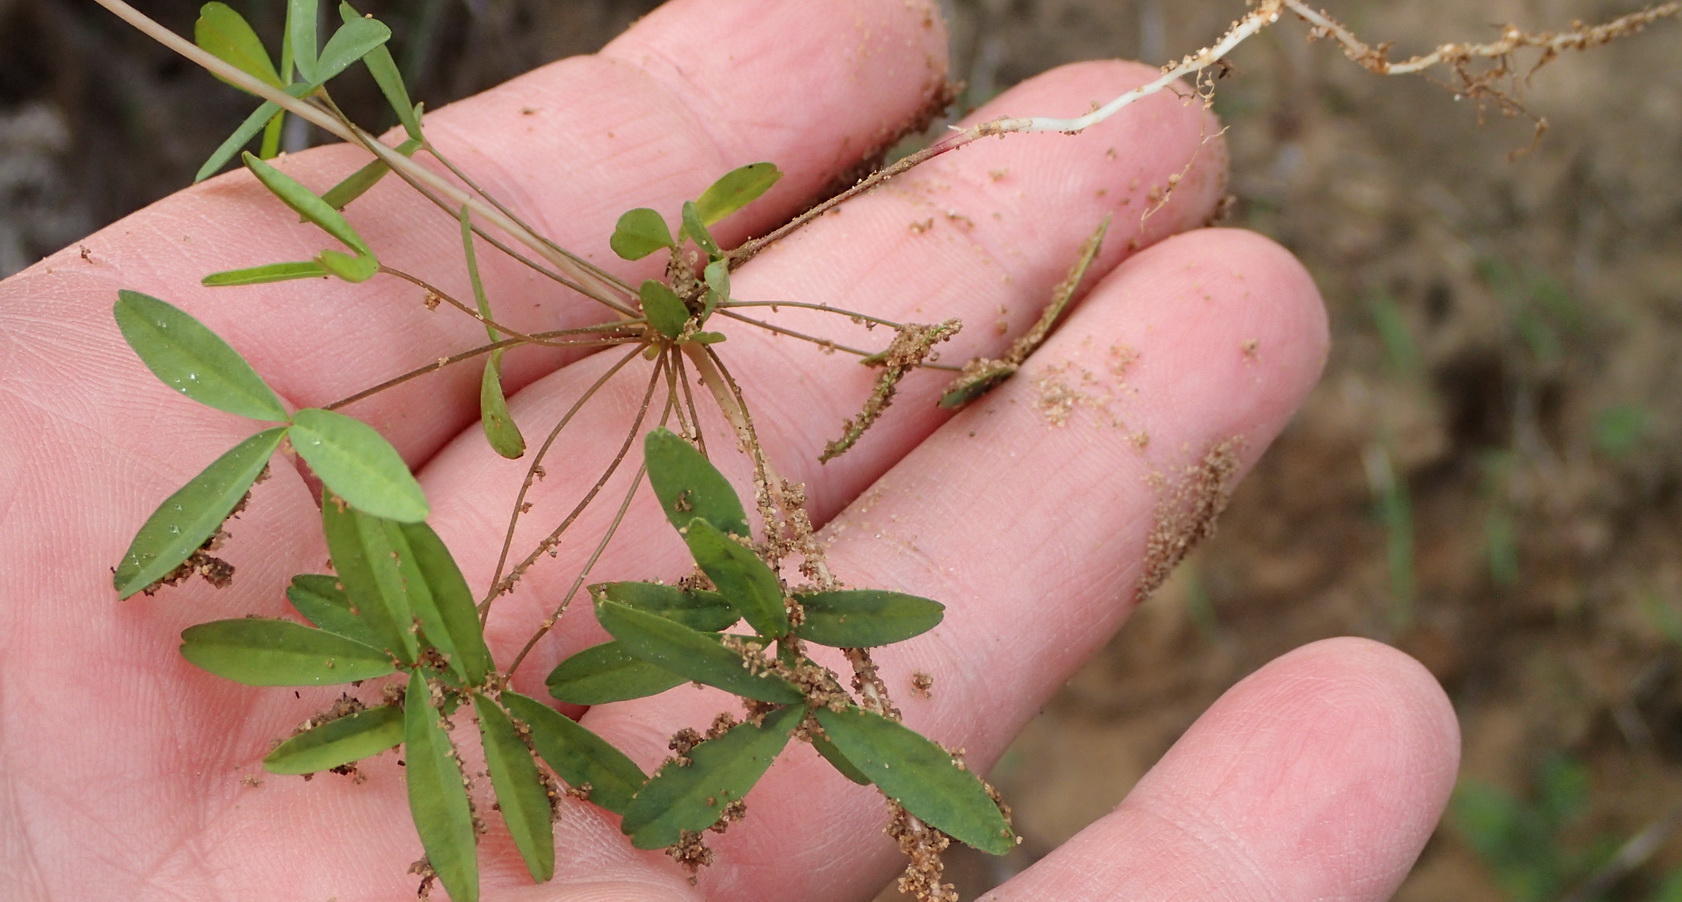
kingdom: Plantae
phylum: Tracheophyta
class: Magnoliopsida
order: Oxalidales
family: Oxalidaceae
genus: Oxalis
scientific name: Oxalis ciliaris
